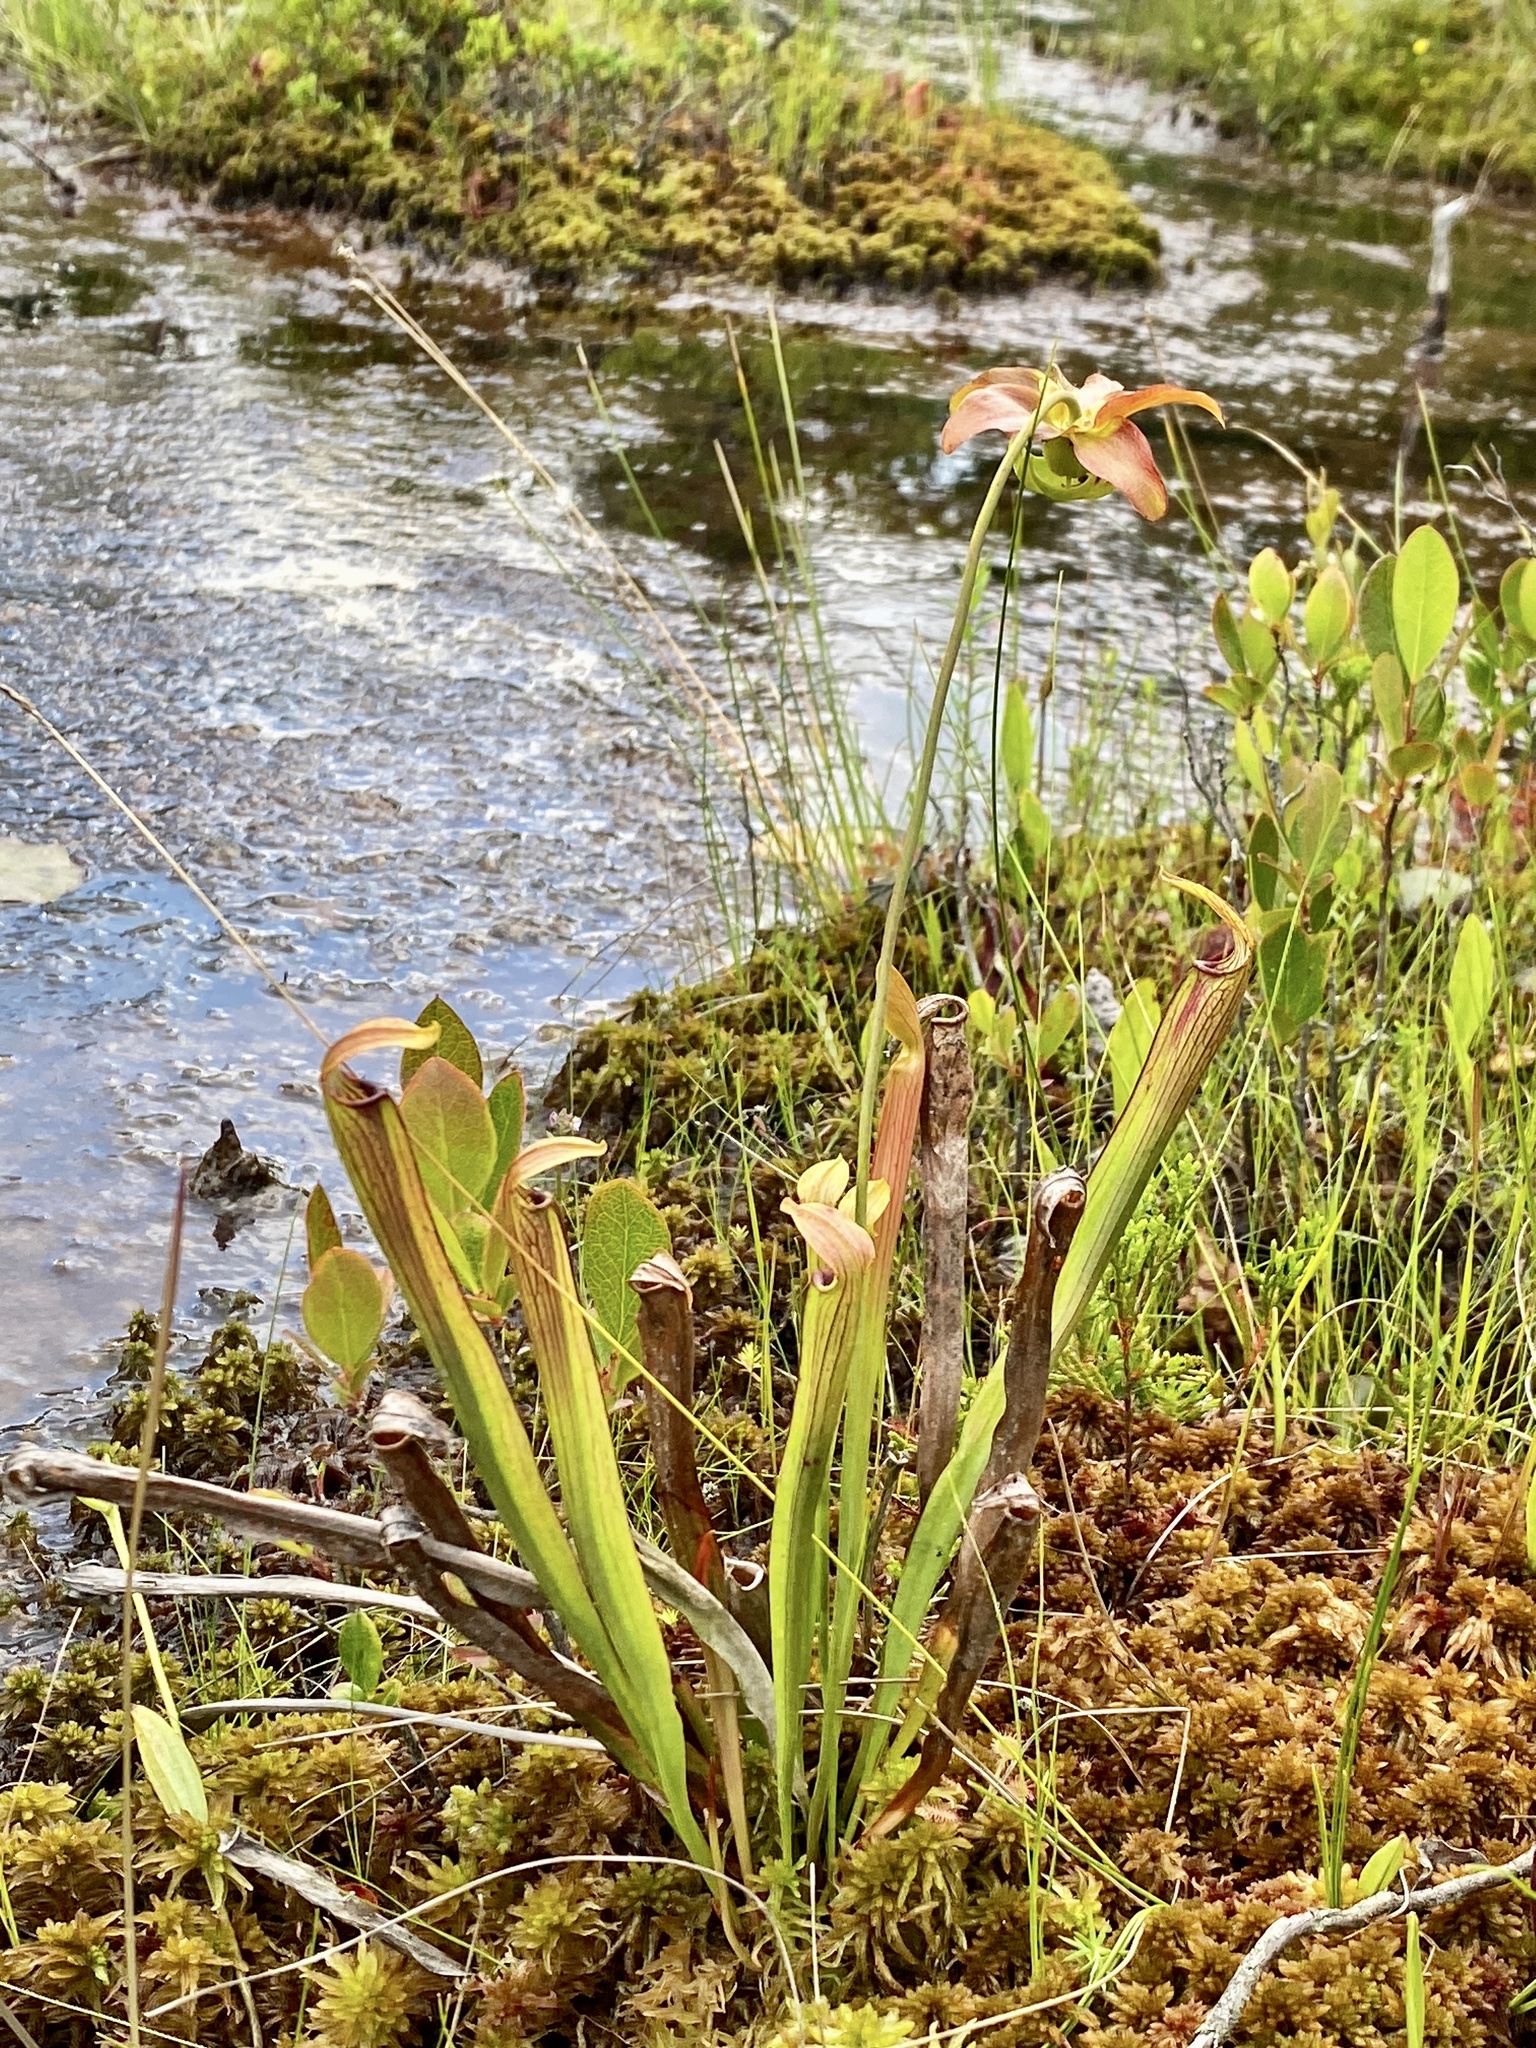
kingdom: Plantae
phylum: Tracheophyta
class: Magnoliopsida
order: Ericales
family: Sarraceniaceae
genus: Sarracenia
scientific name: Sarracenia rubra
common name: Sweet pitcherplant
